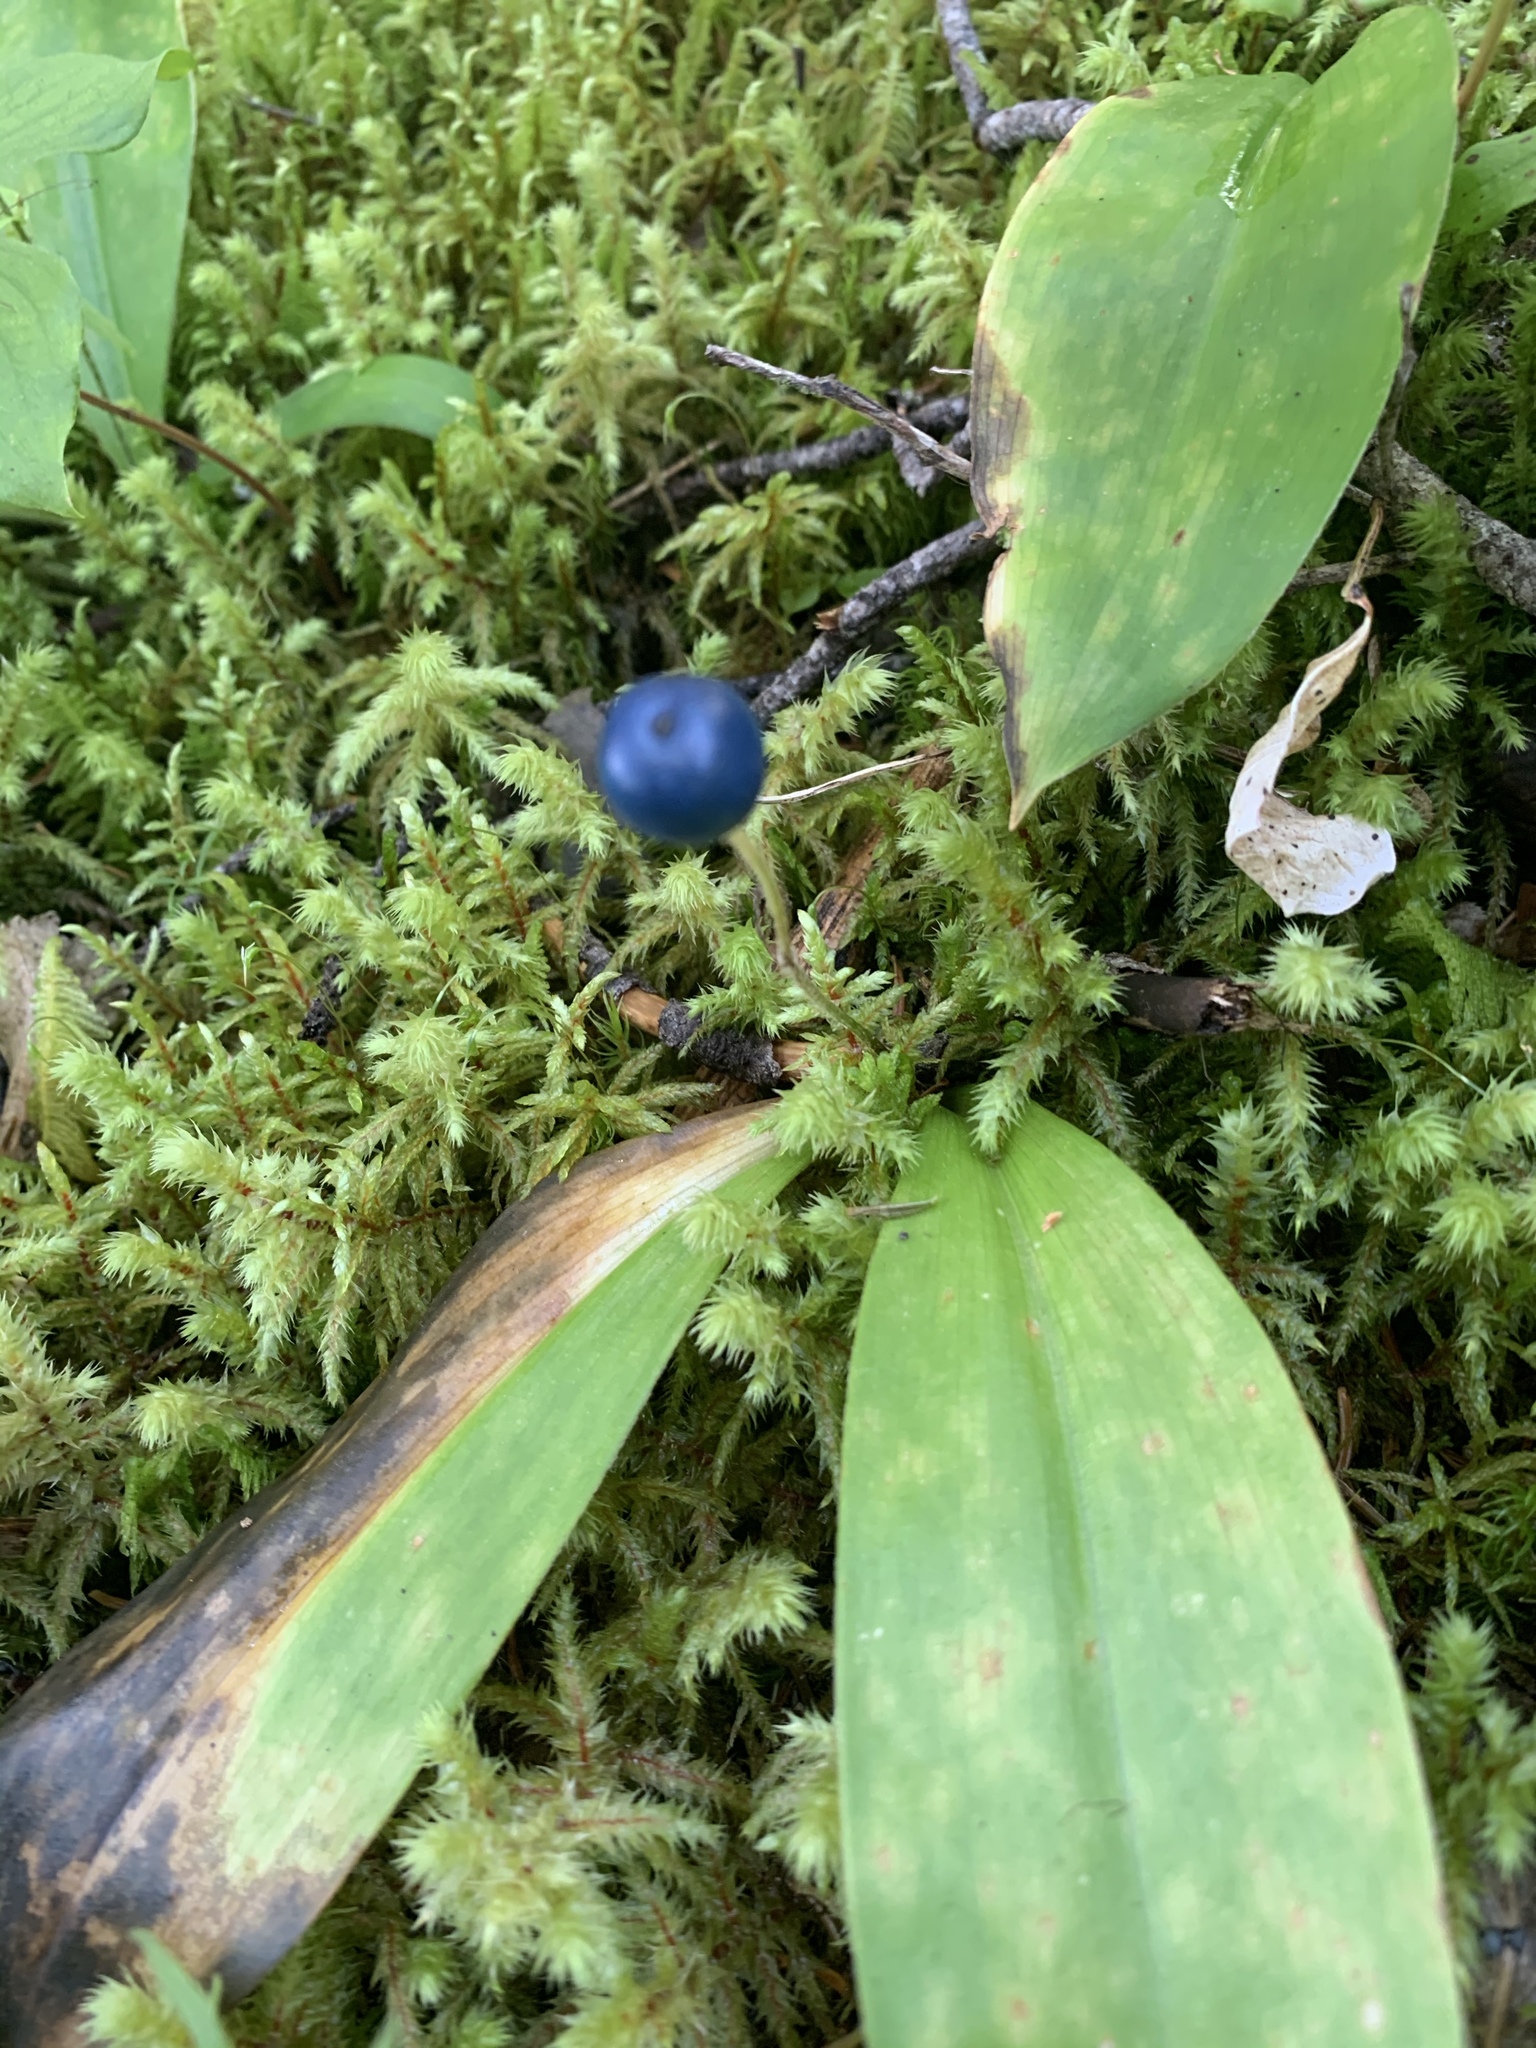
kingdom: Plantae
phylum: Tracheophyta
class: Liliopsida
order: Liliales
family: Liliaceae
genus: Clintonia
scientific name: Clintonia uniflora
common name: Queen's cup
